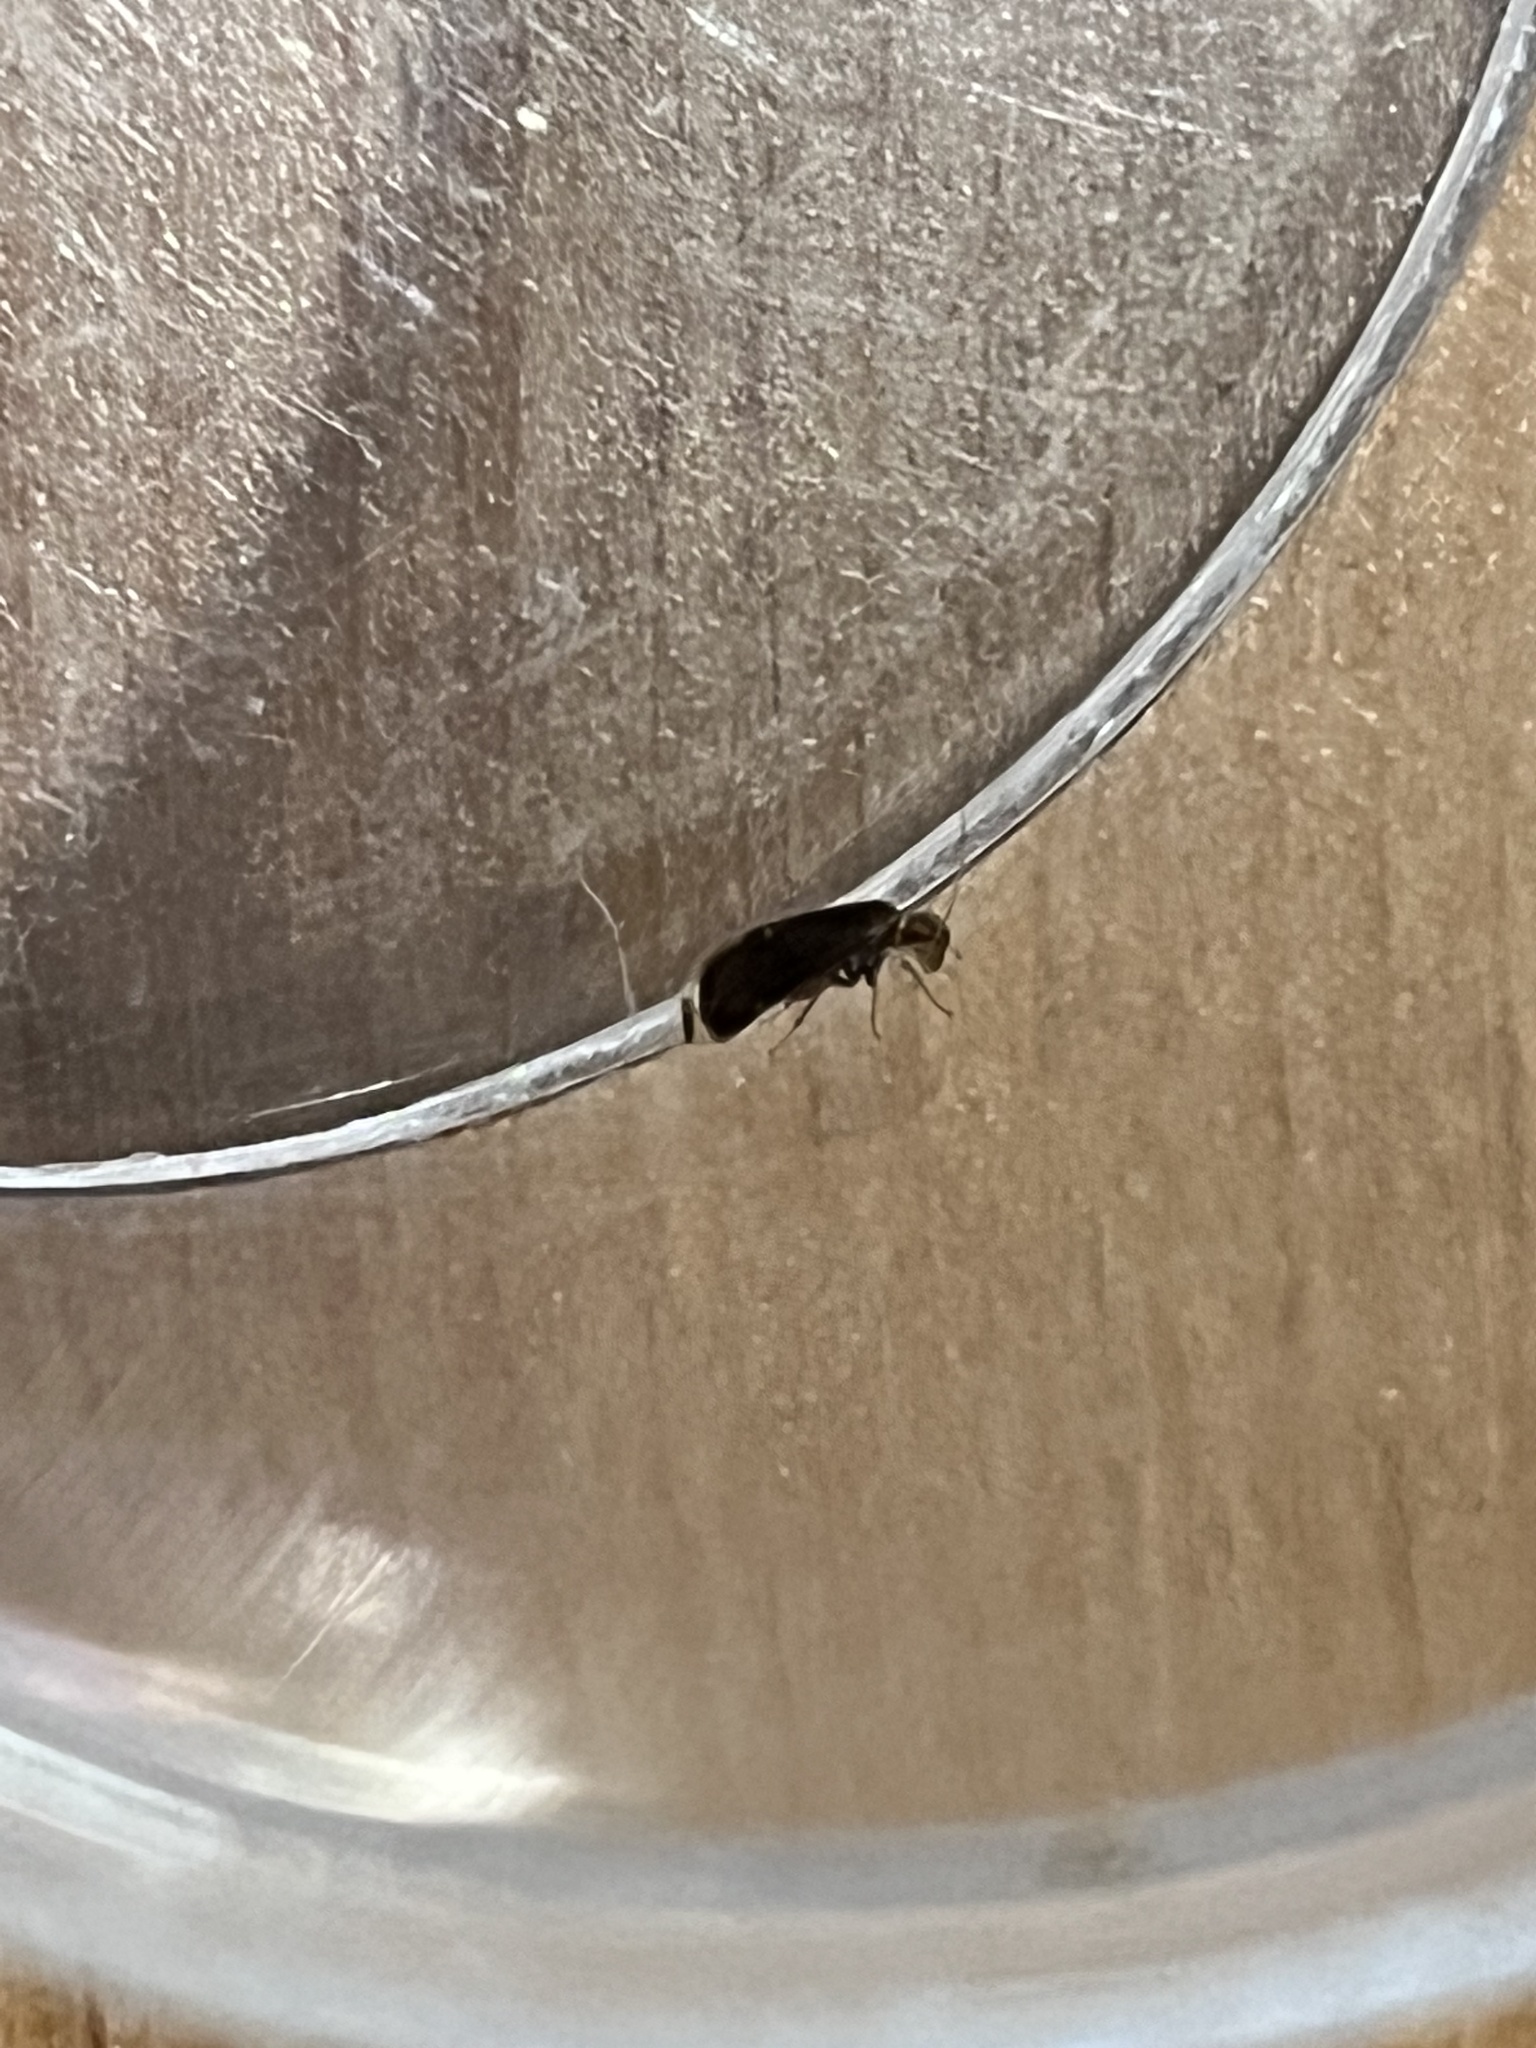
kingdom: Animalia
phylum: Arthropoda
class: Insecta
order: Psocodea
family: Amphipsocidae
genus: Polypsocus
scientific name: Polypsocus corruptus
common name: Corrupt barklouse
